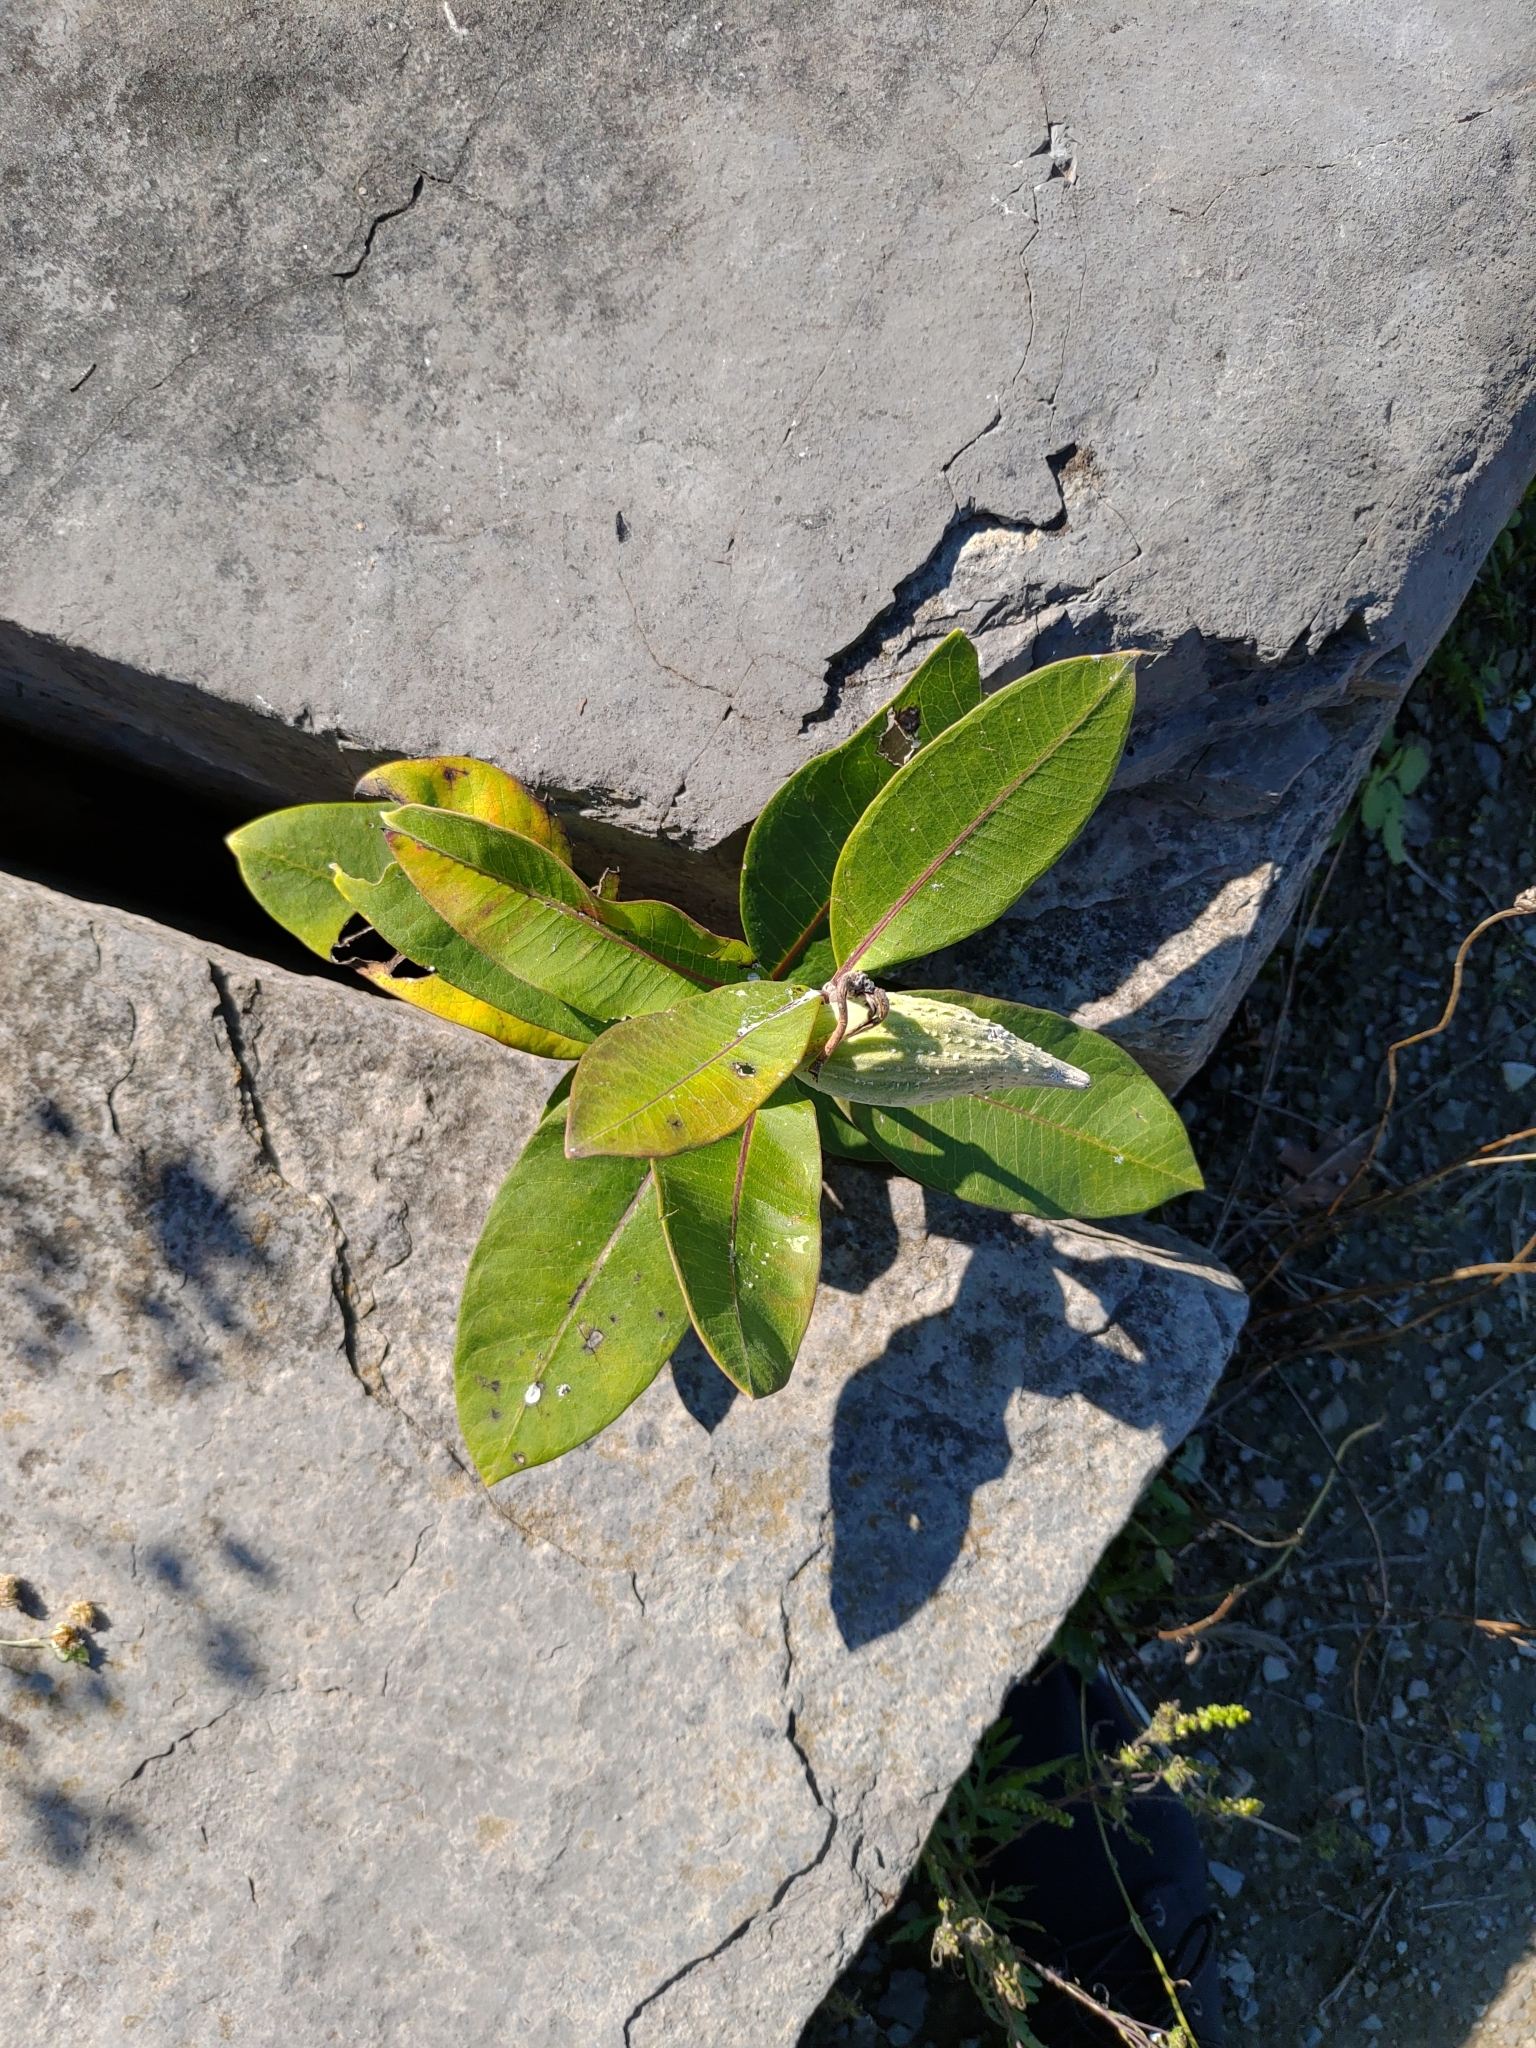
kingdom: Plantae
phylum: Tracheophyta
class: Magnoliopsida
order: Gentianales
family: Apocynaceae
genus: Asclepias
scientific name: Asclepias syriaca
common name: Common milkweed
